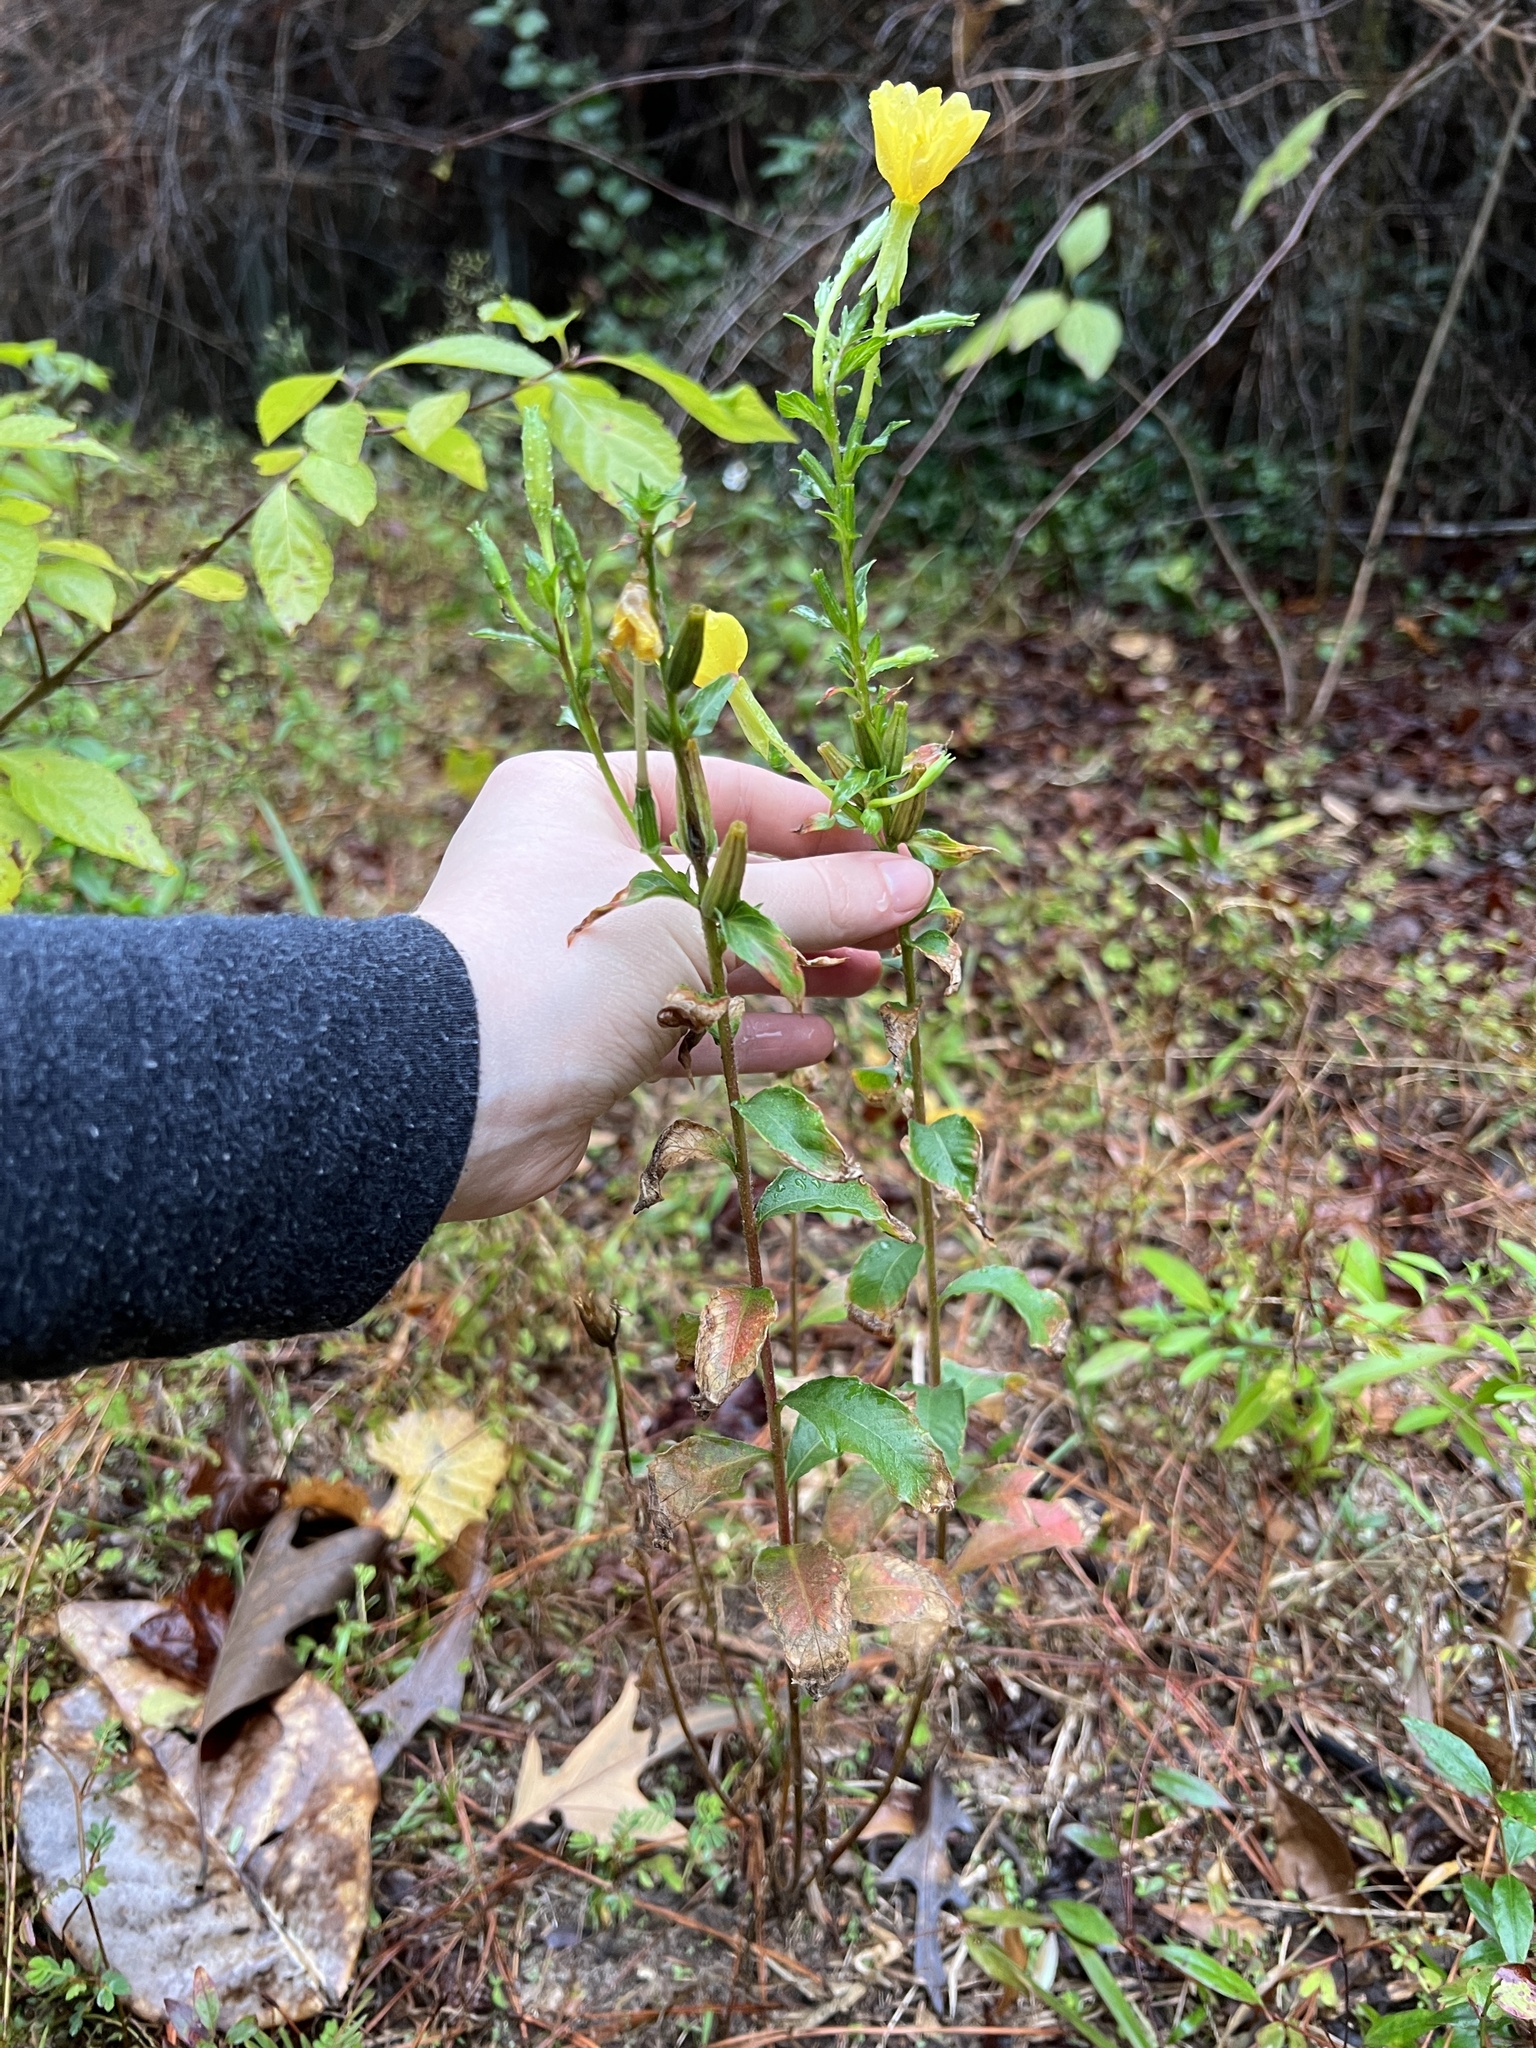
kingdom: Plantae
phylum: Tracheophyta
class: Magnoliopsida
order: Myrtales
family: Onagraceae
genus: Oenothera
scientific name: Oenothera biennis
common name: Common evening-primrose
